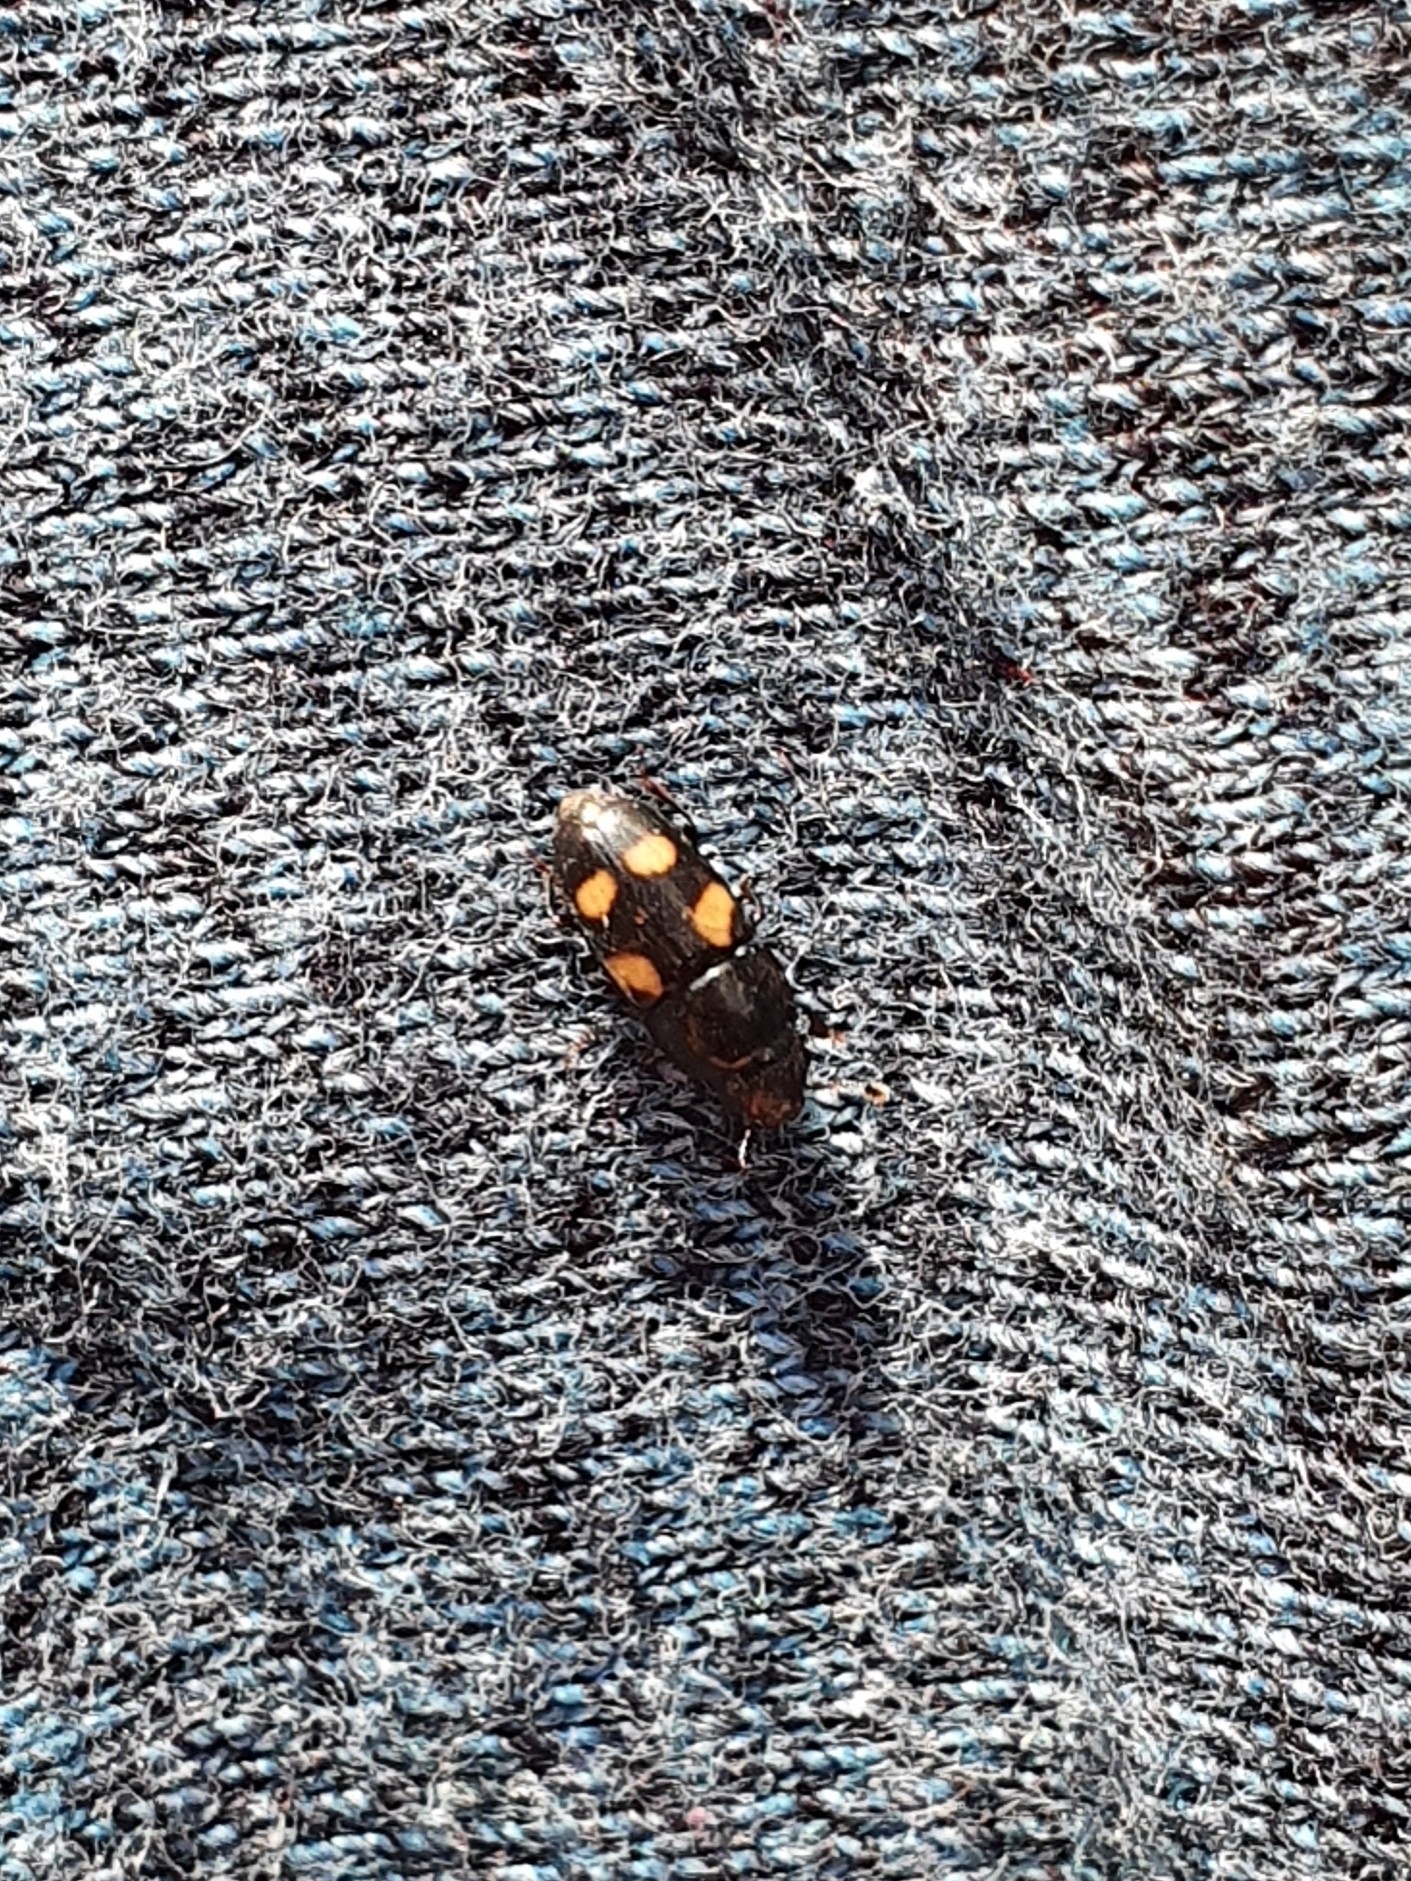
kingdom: Animalia
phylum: Arthropoda
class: Insecta
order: Coleoptera
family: Nitidulidae
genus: Glischrochilus
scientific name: Glischrochilus quadrisignatus
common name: Picnic beetle
